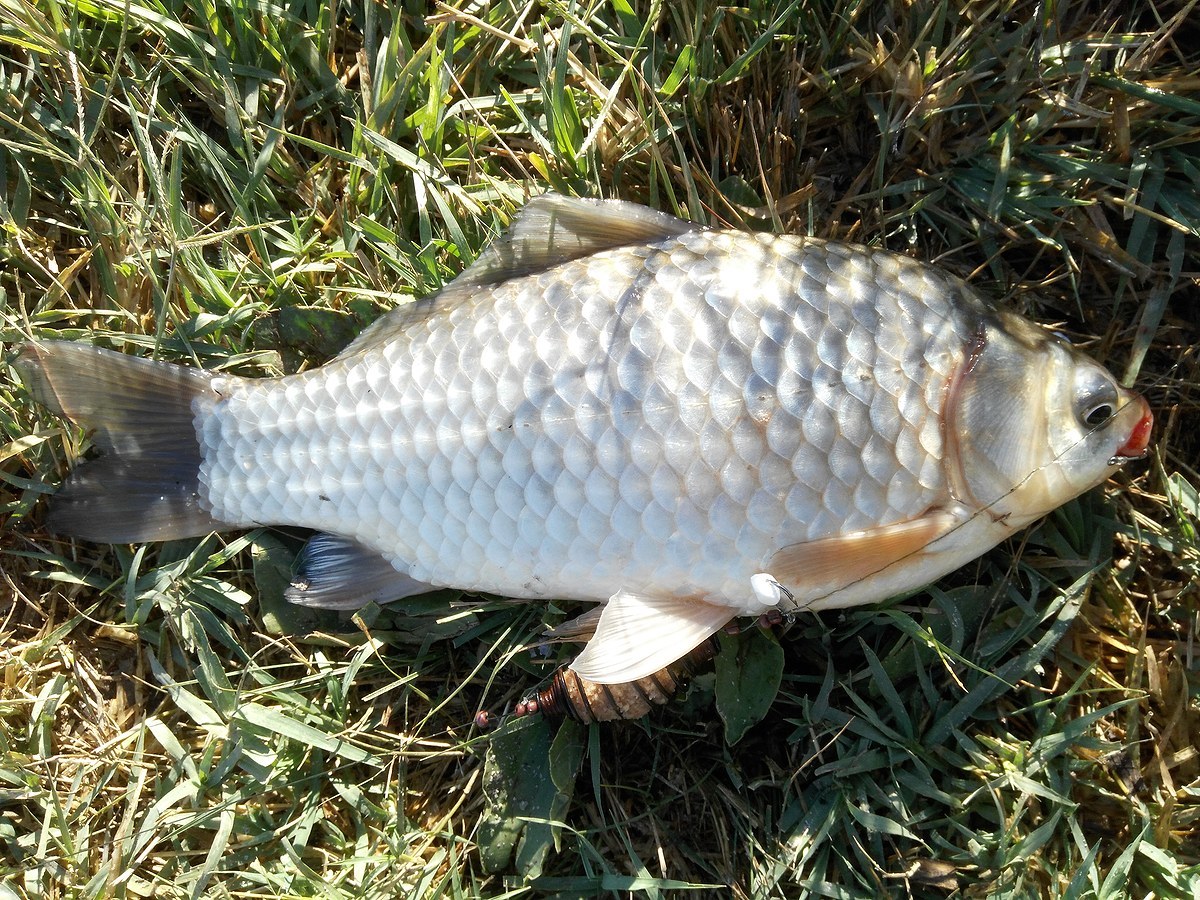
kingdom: Animalia
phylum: Chordata
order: Cypriniformes
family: Cyprinidae
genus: Carassius
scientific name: Carassius gibelio
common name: Prussian carp
